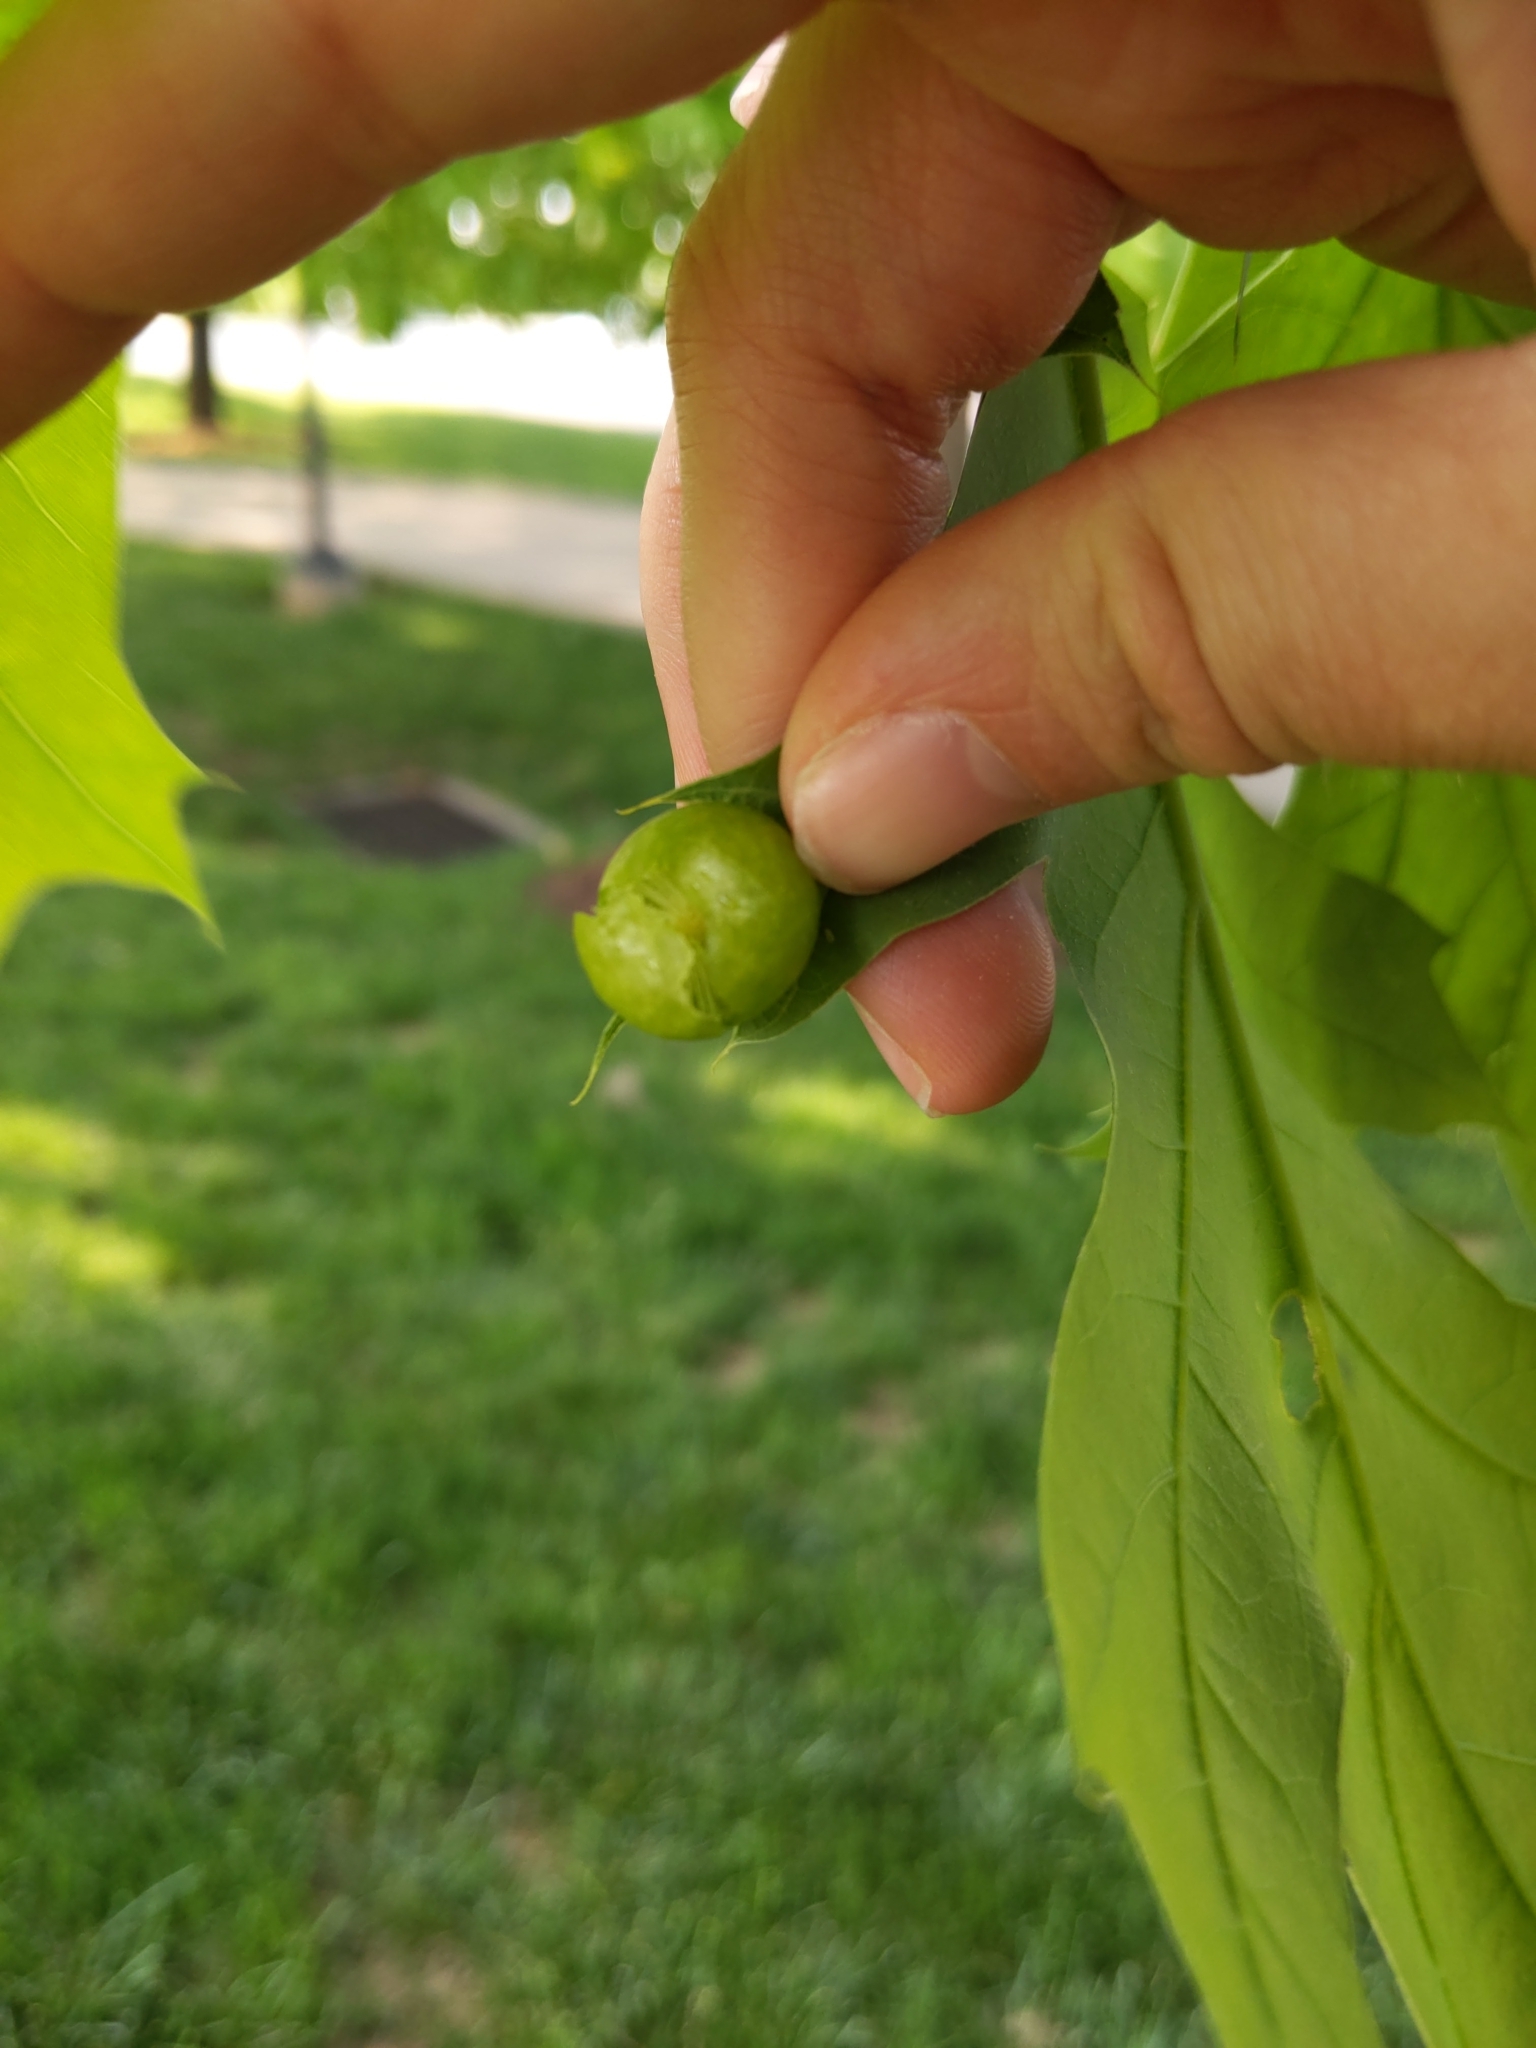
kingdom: Animalia
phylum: Arthropoda
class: Insecta
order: Hymenoptera
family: Cynipidae
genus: Amphibolips
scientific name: Amphibolips
